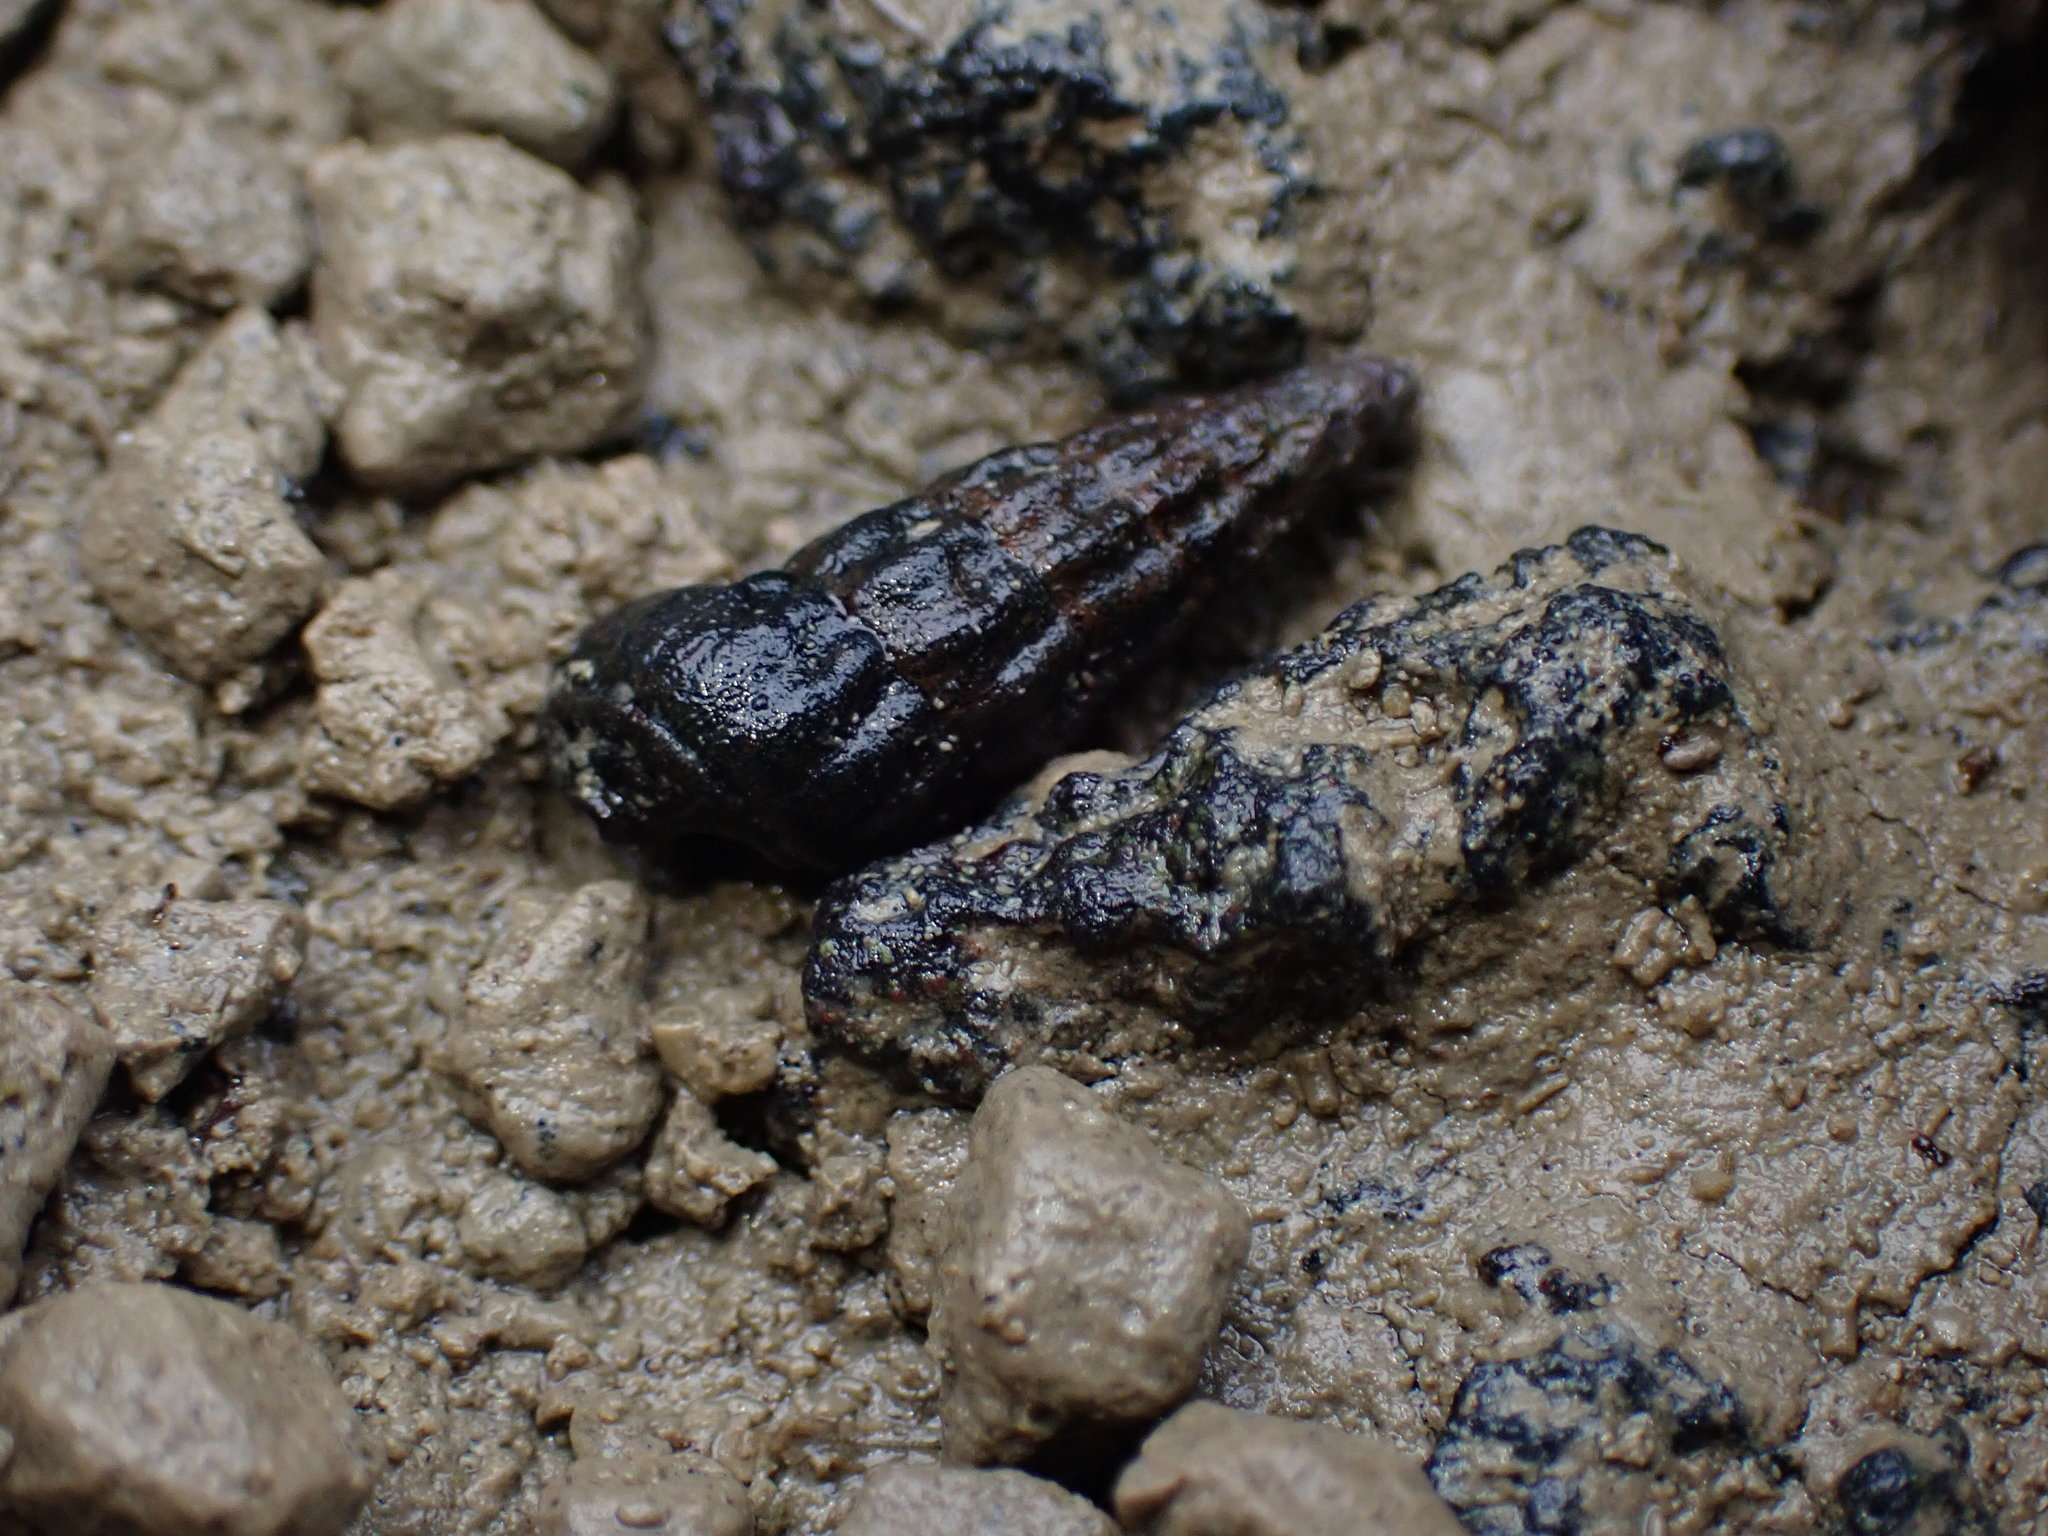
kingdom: Animalia
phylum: Mollusca
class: Gastropoda
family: Batillariidae
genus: Zeacumantus
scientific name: Zeacumantus subcarinatus
